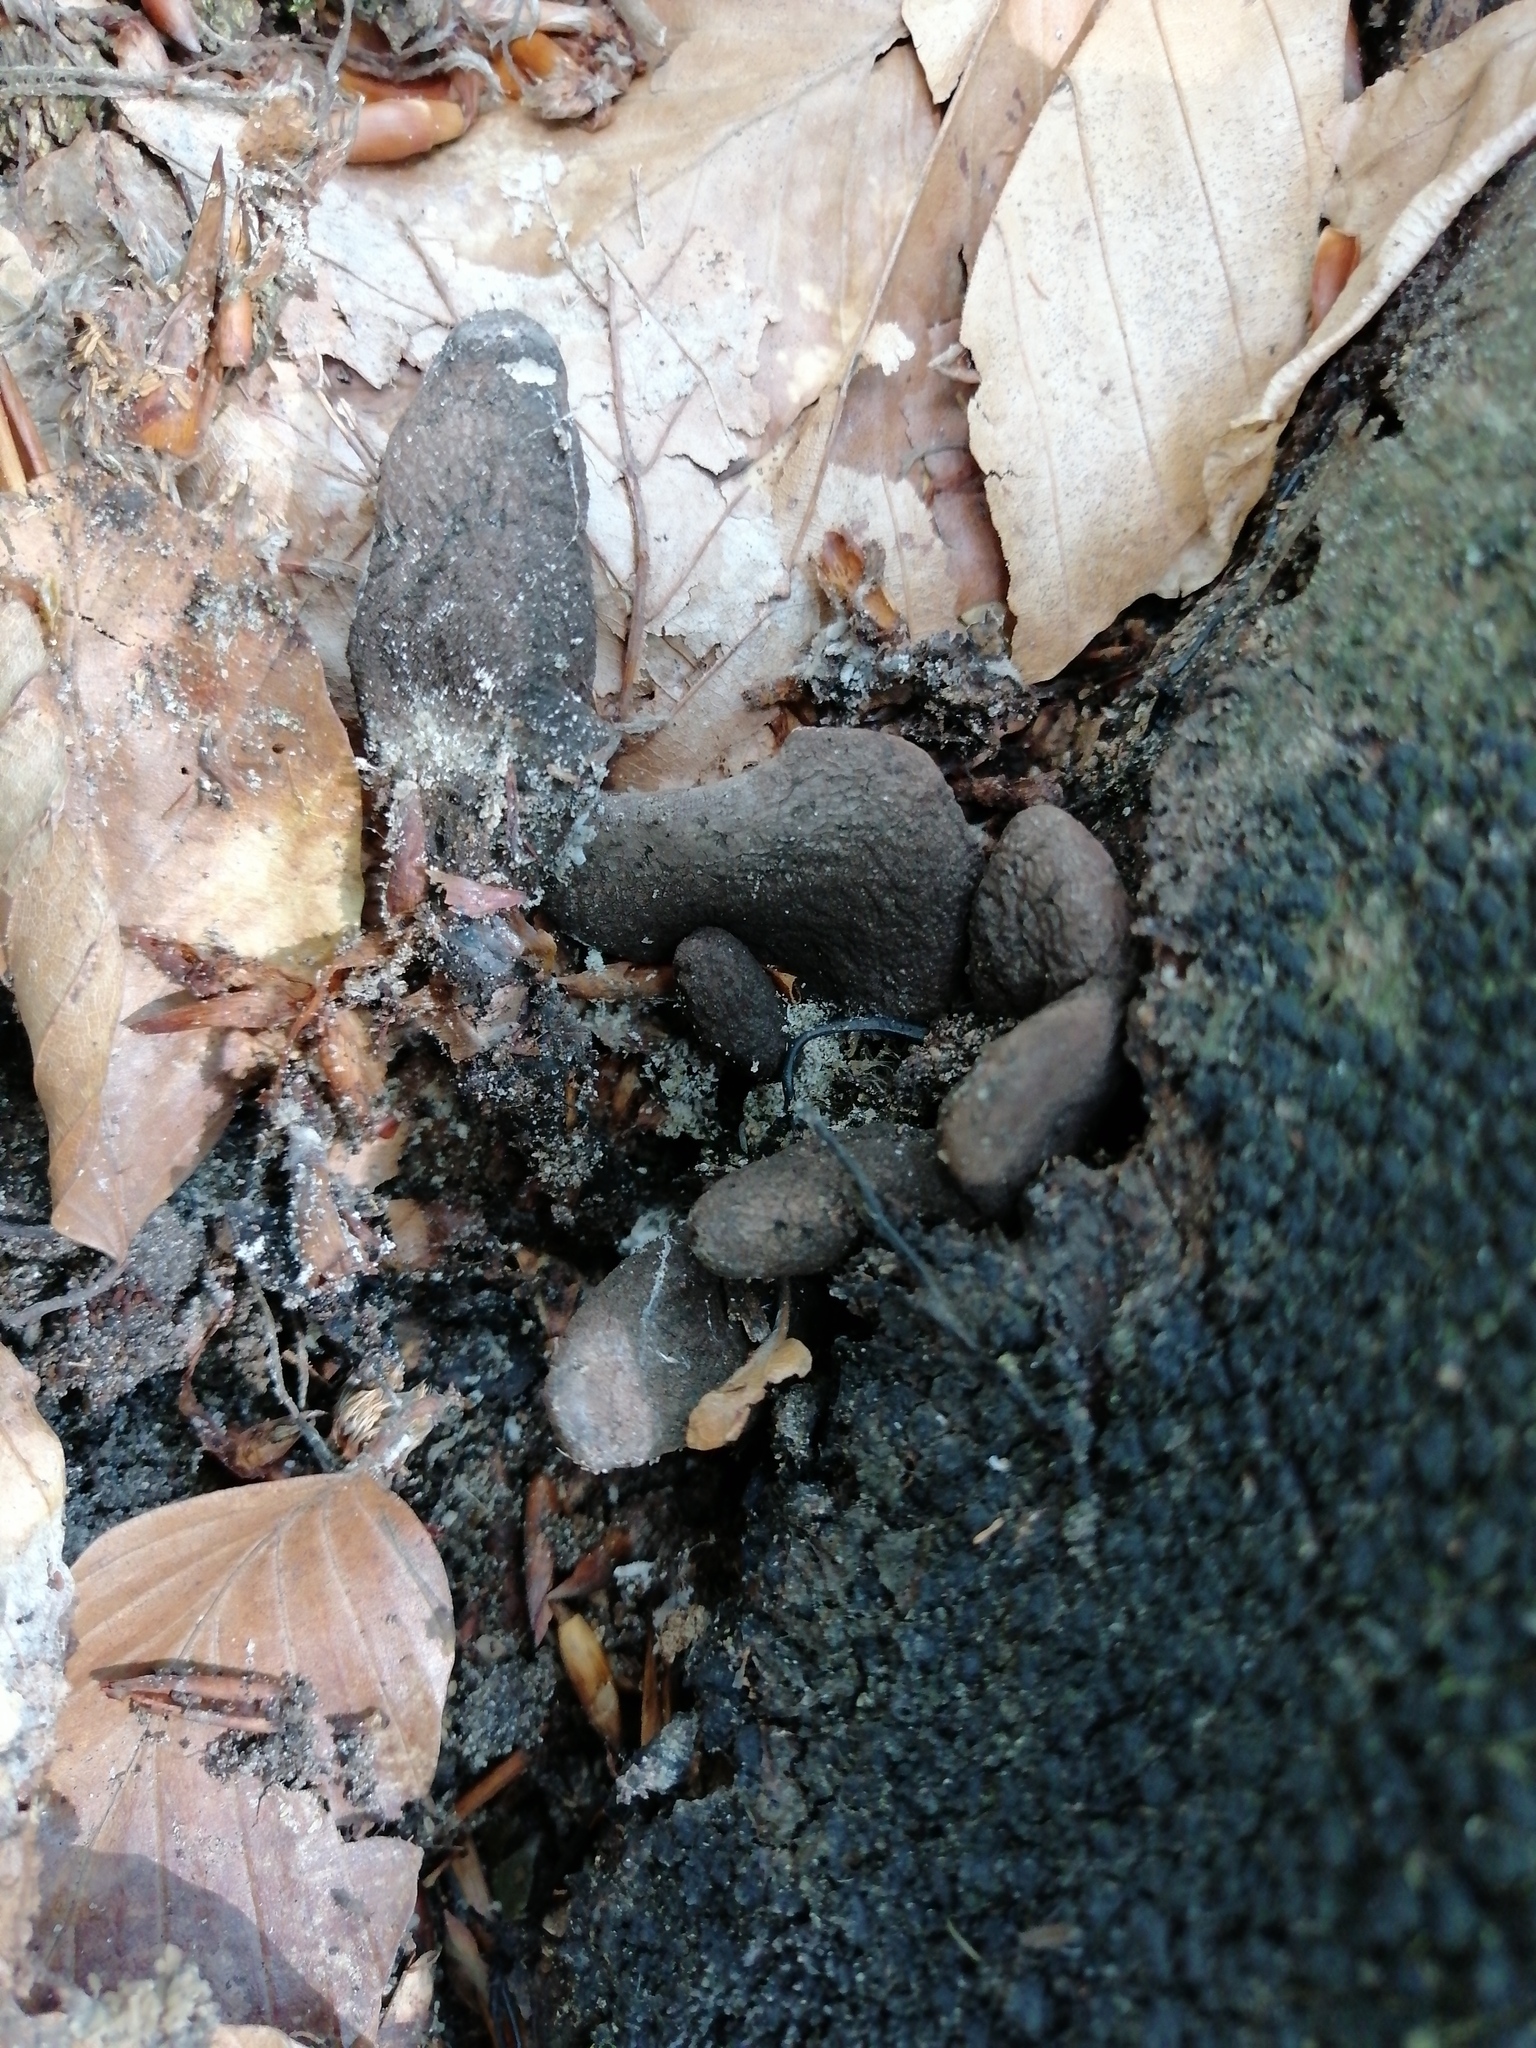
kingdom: Fungi
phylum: Ascomycota
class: Sordariomycetes
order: Xylariales
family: Xylariaceae
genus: Xylaria
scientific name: Xylaria polymorpha
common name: Dead man's fingers
